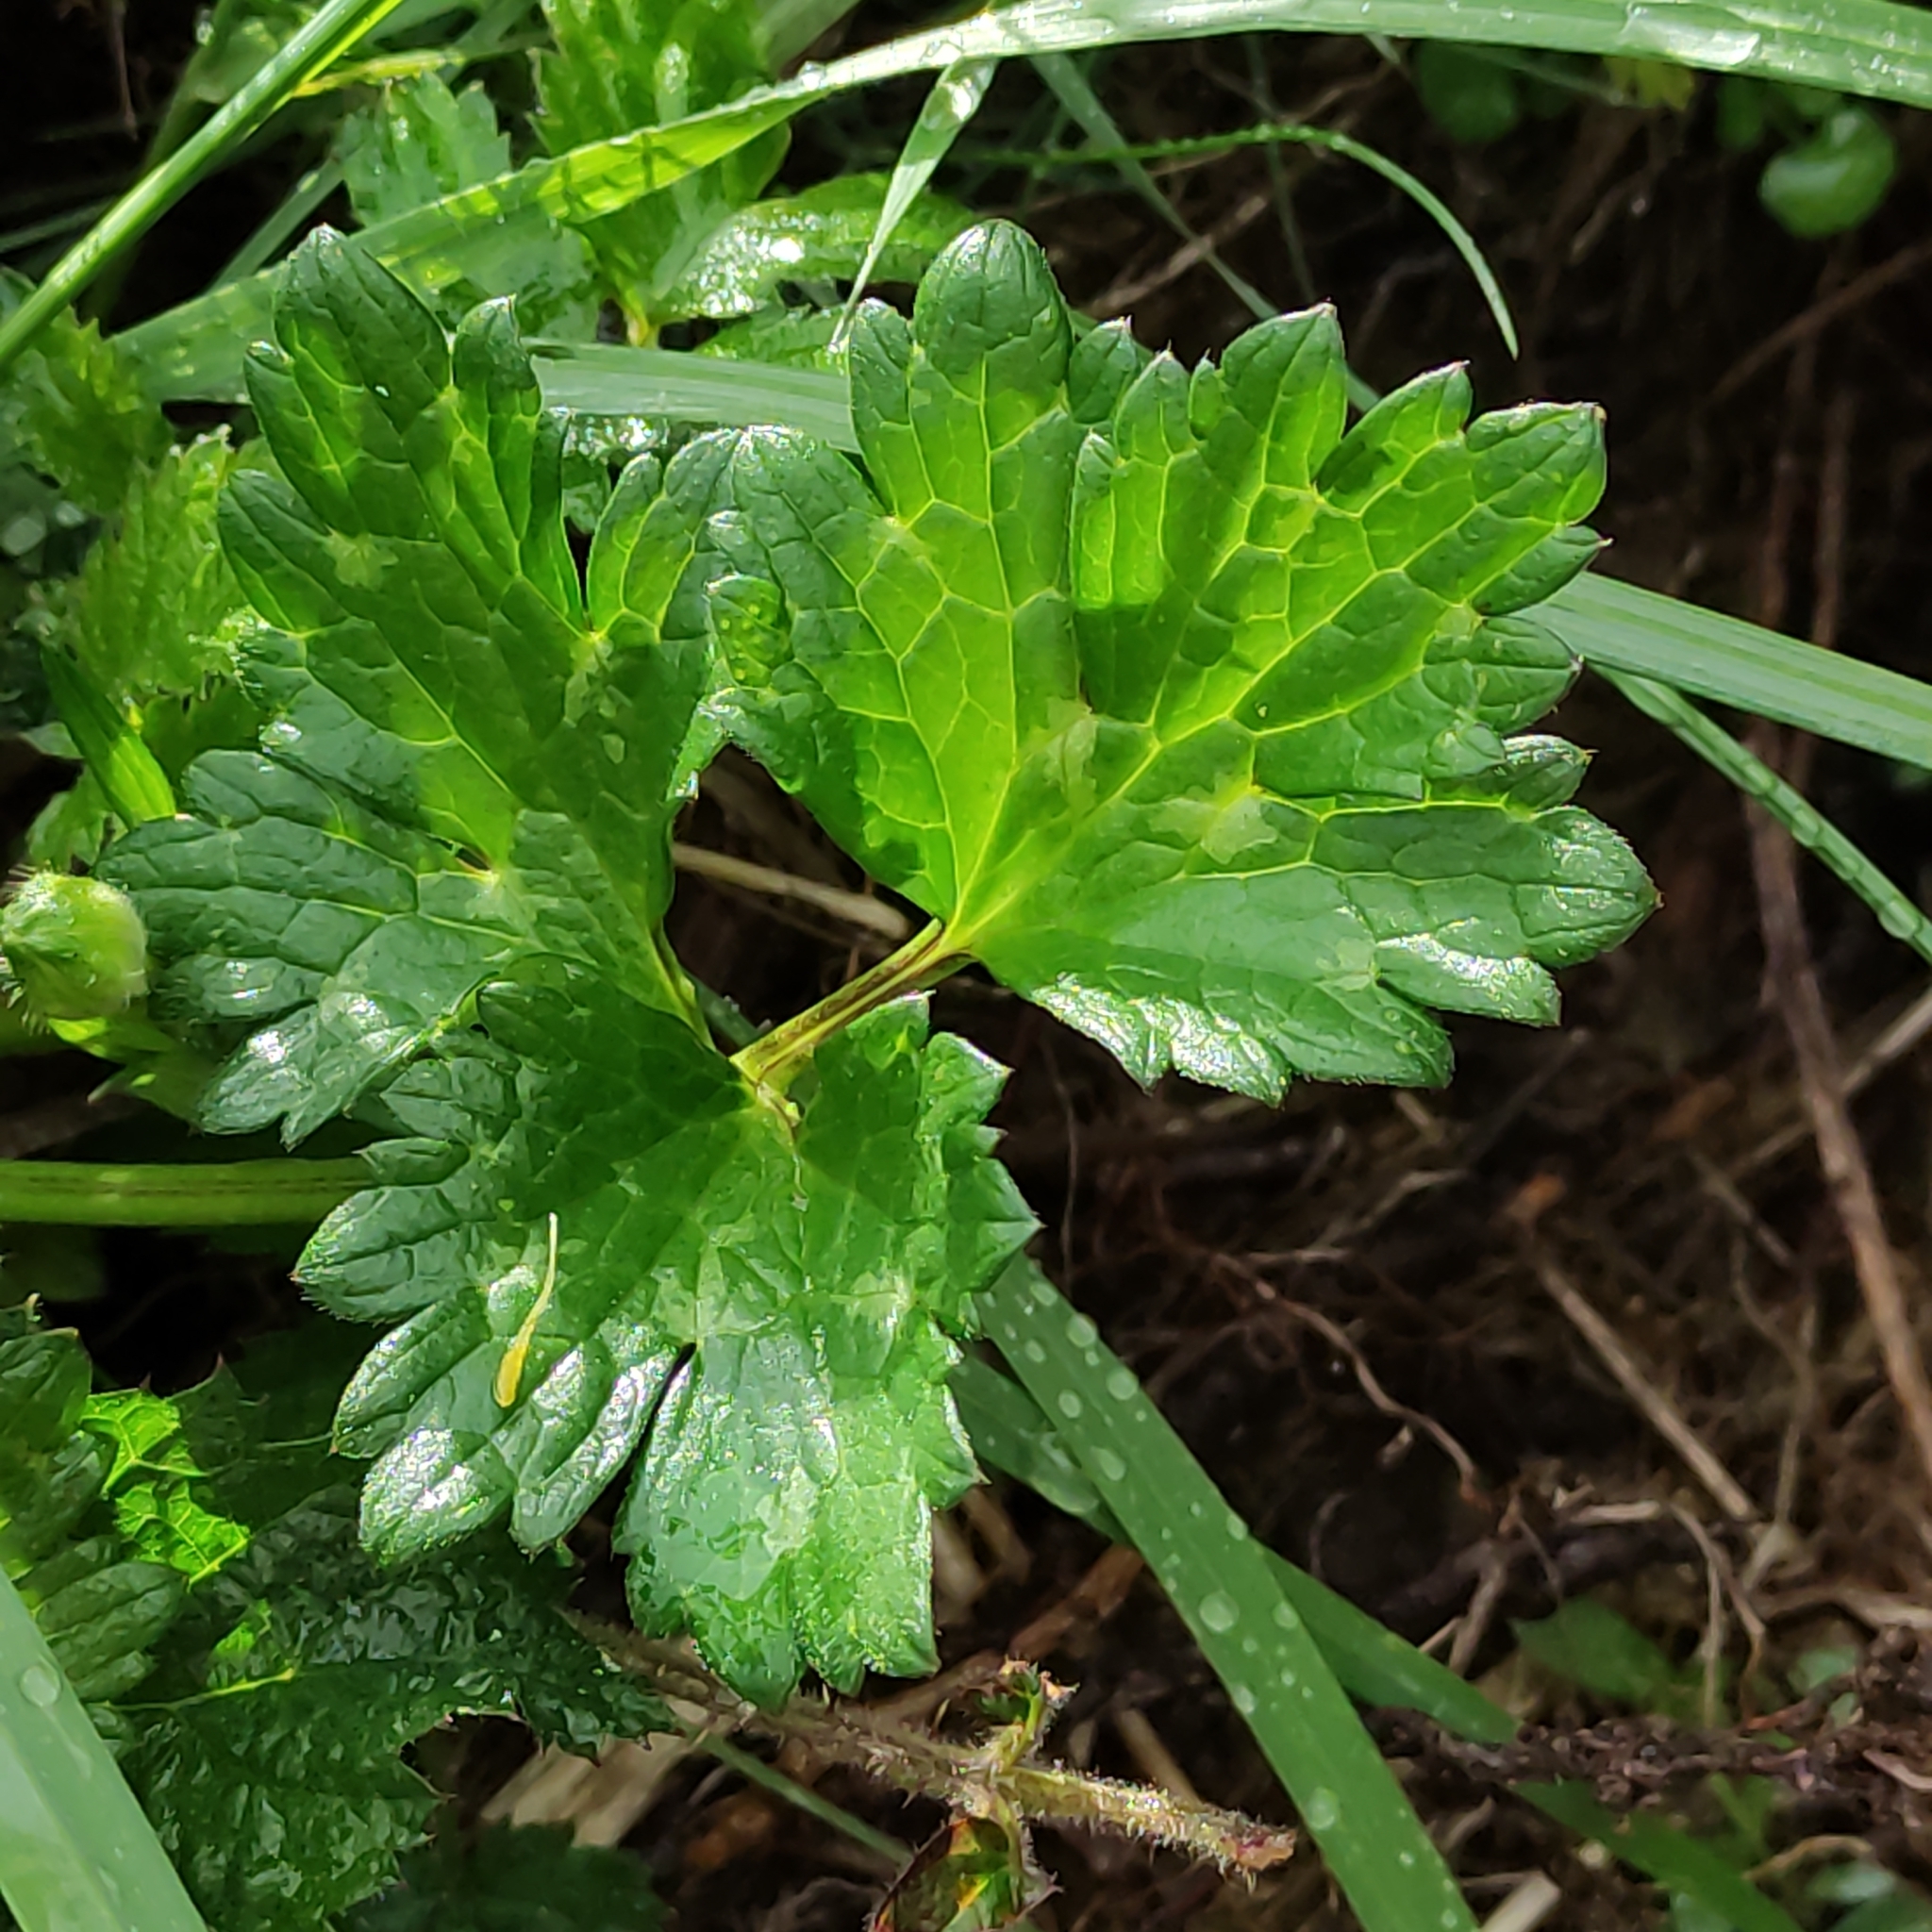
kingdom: Plantae
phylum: Tracheophyta
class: Magnoliopsida
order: Ranunculales
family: Ranunculaceae
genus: Ranunculus
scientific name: Ranunculus repens
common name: Creeping buttercup
